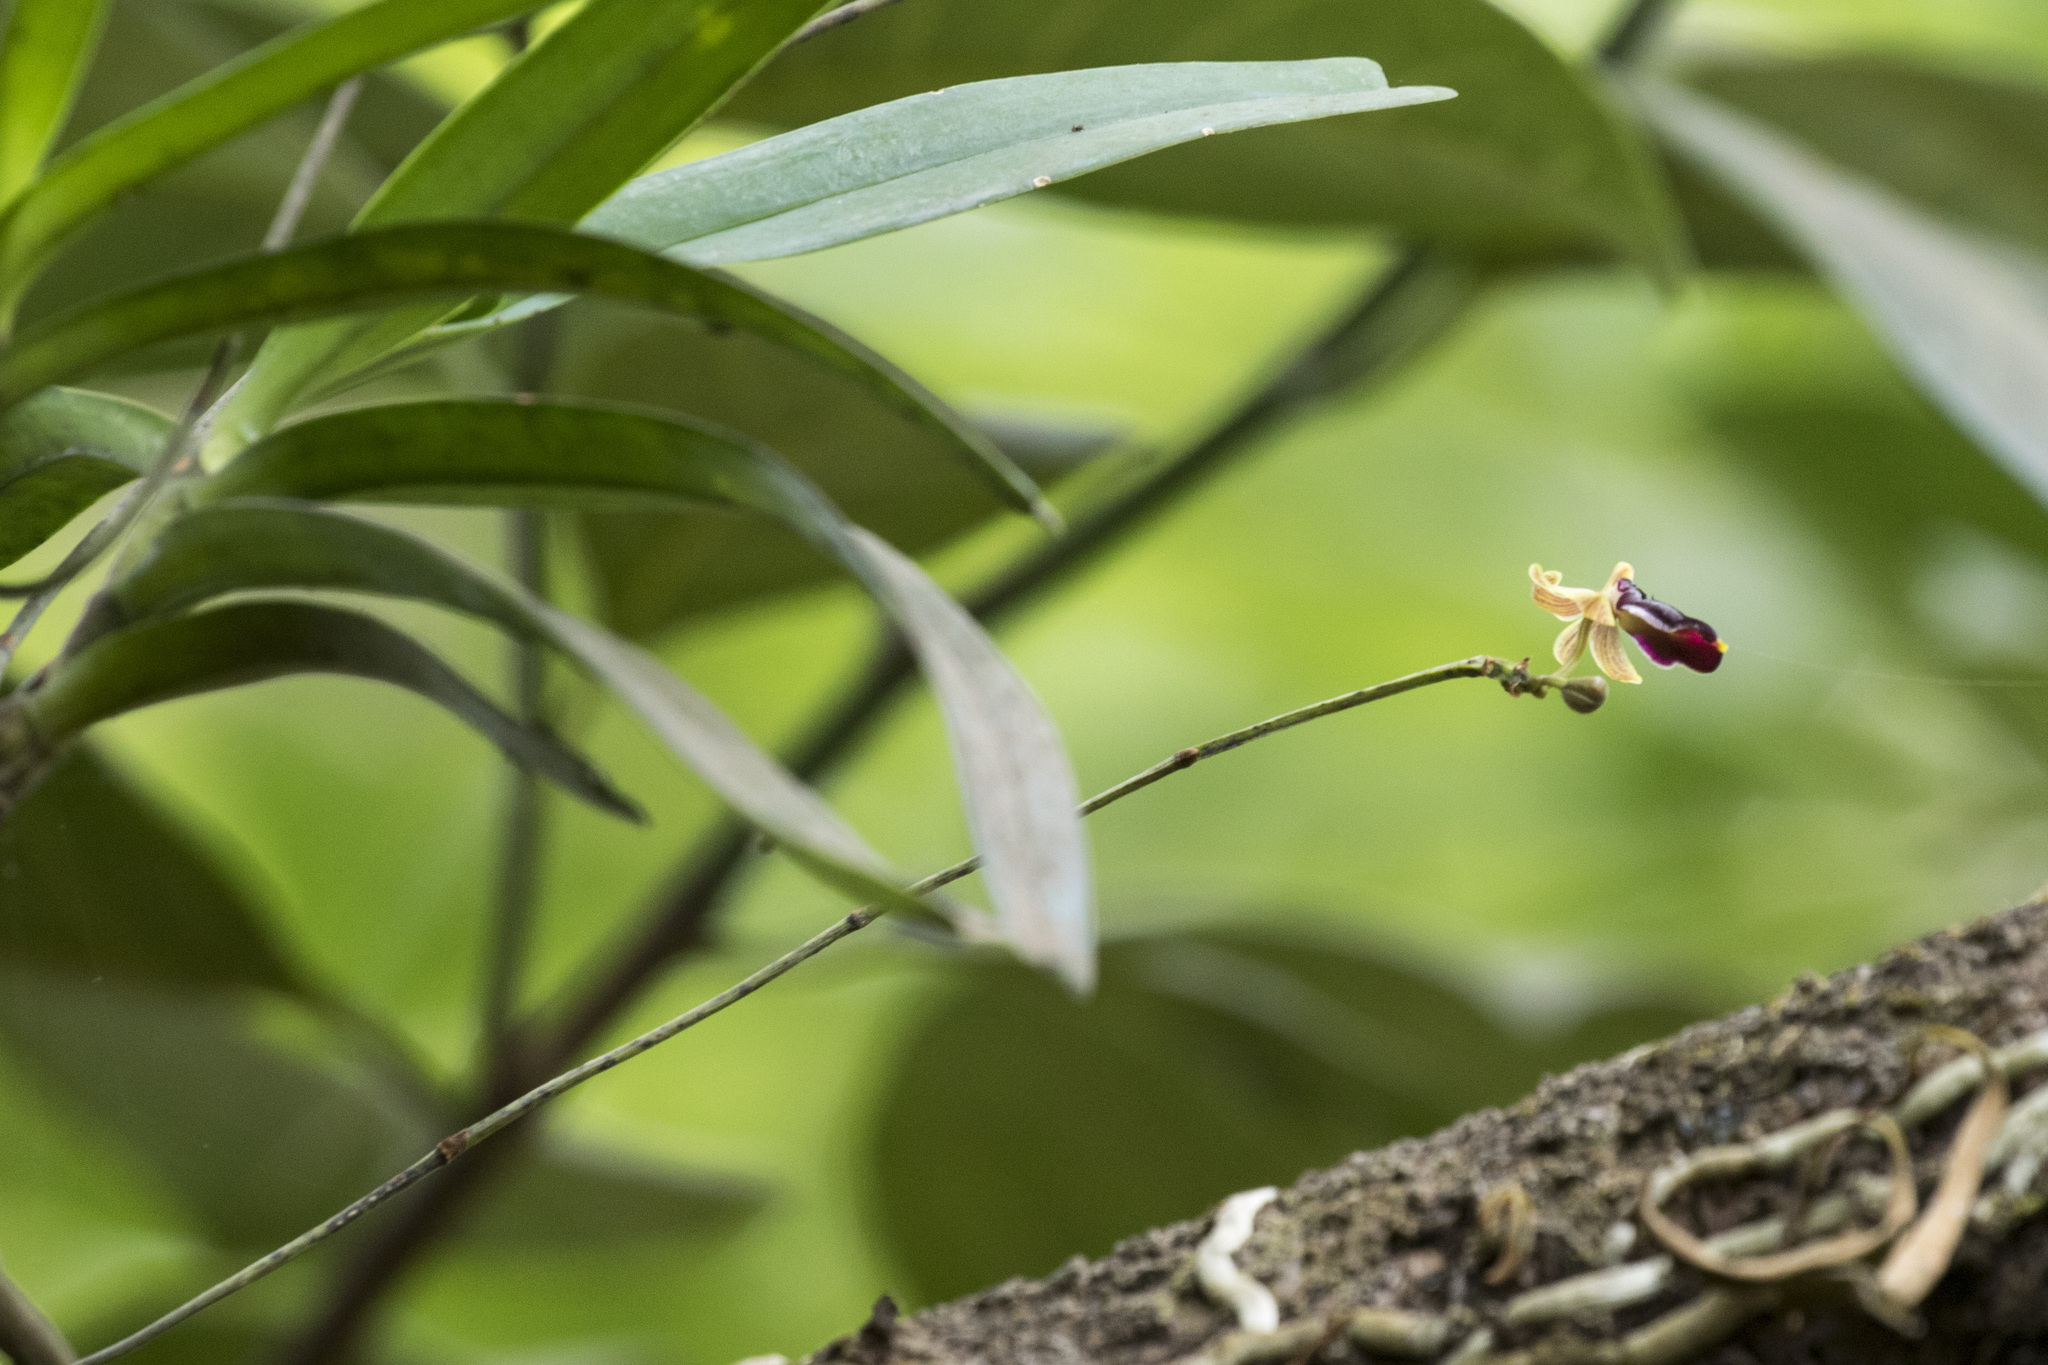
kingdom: Plantae
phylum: Tracheophyta
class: Liliopsida
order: Asparagales
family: Orchidaceae
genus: Cottonia
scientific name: Cottonia peduncularis
